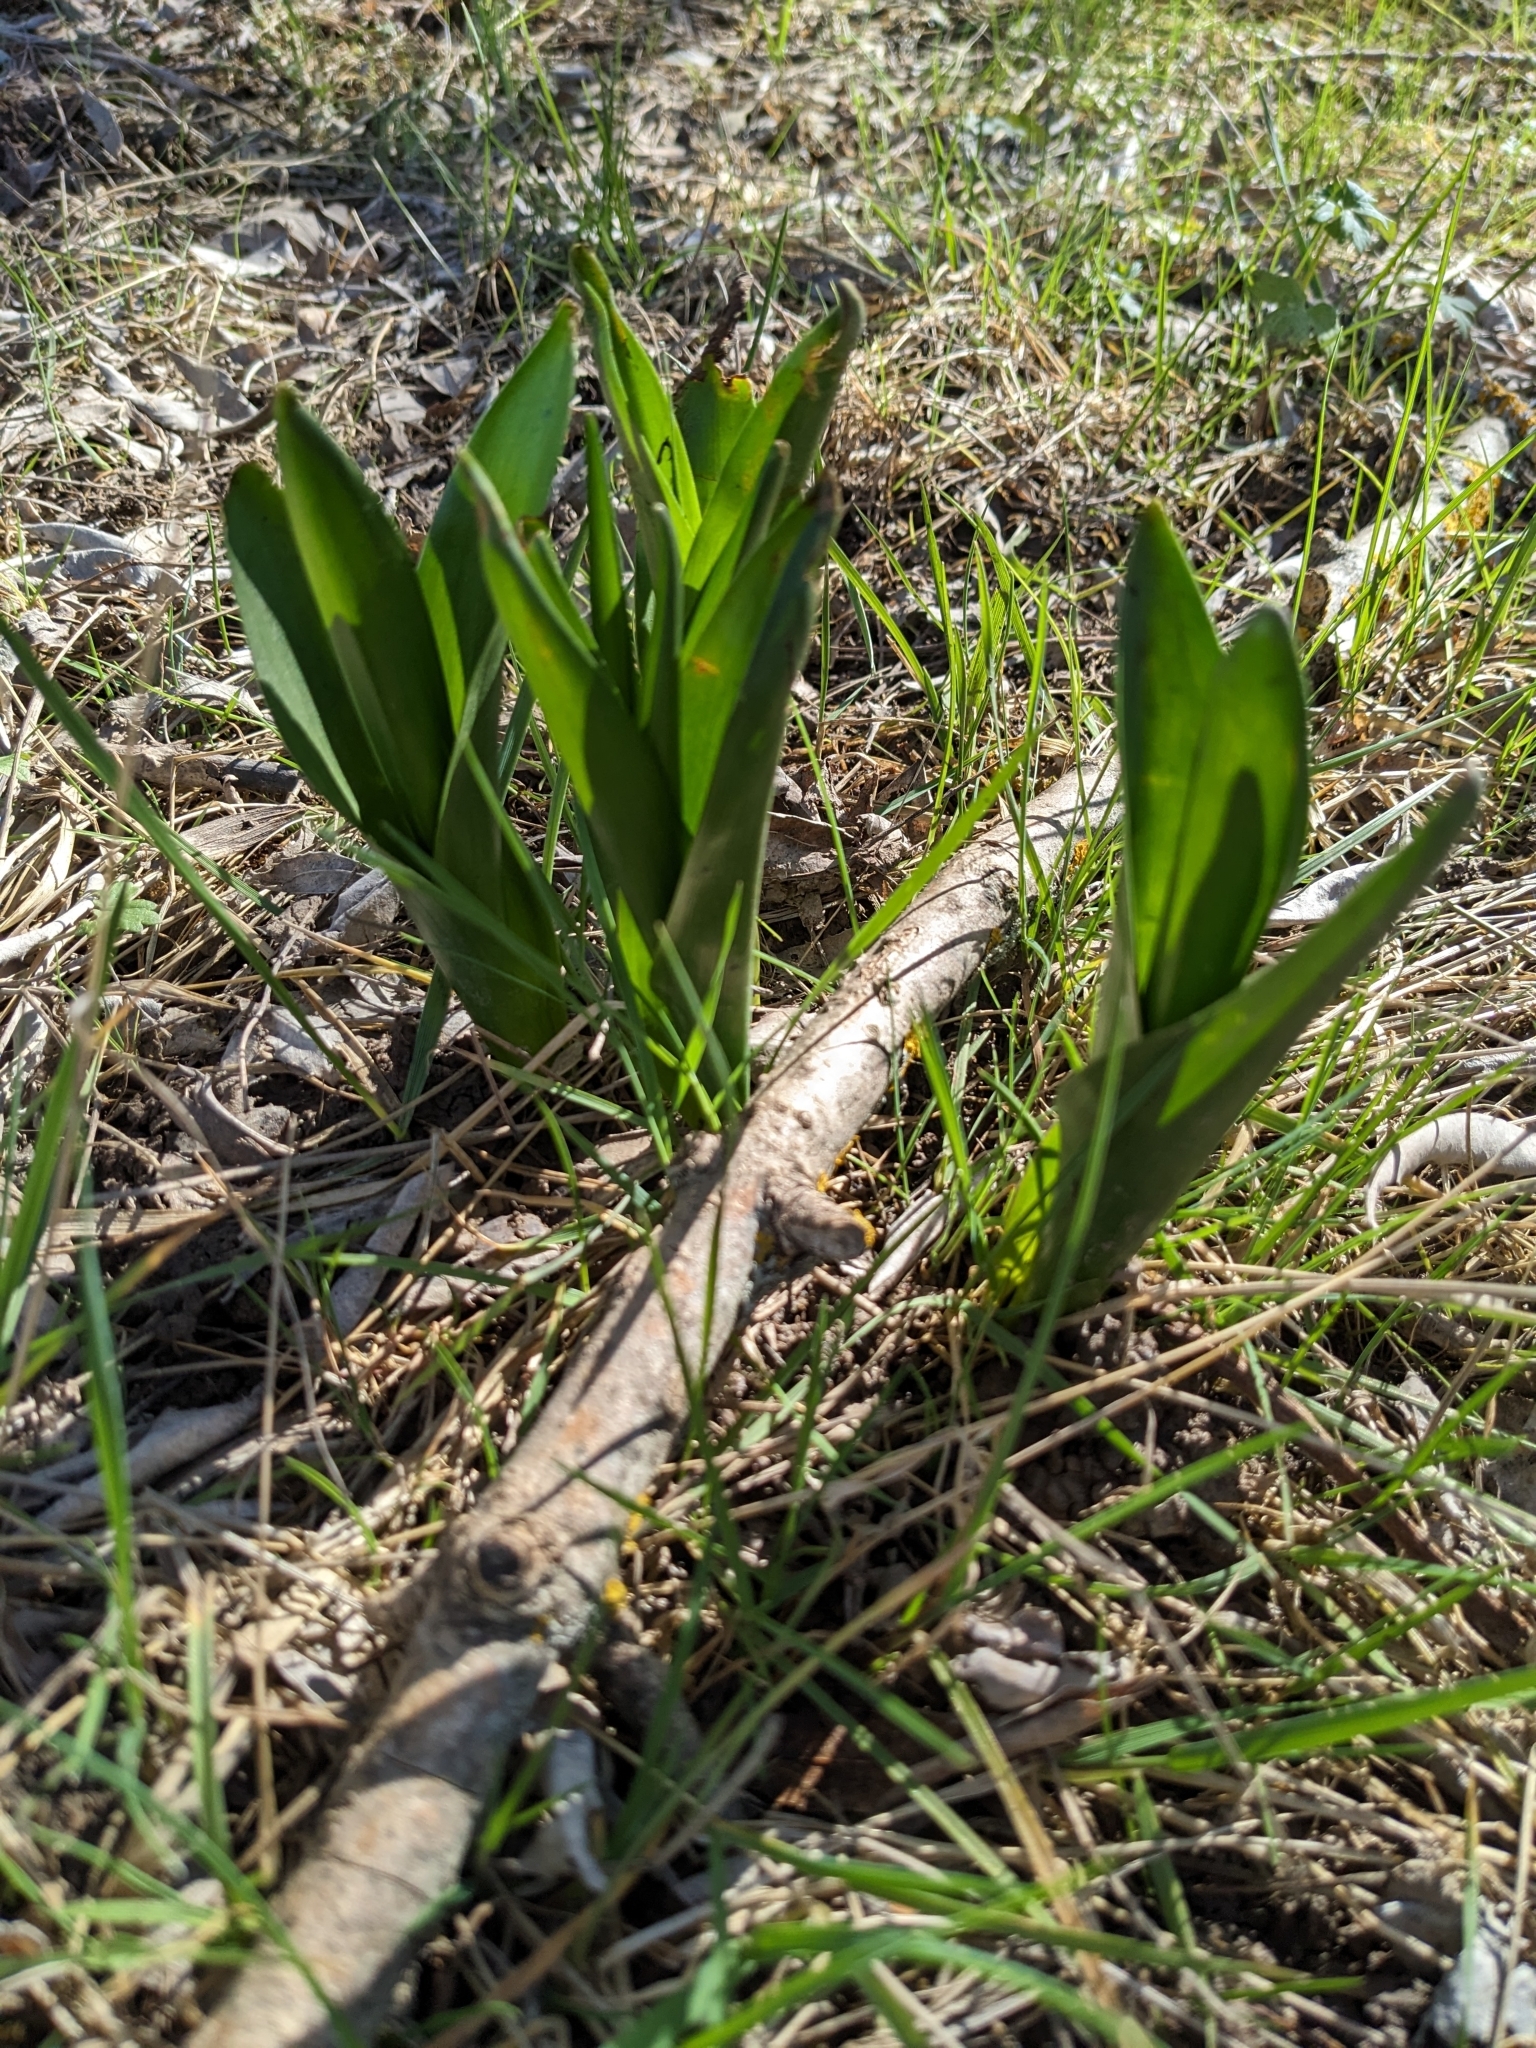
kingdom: Plantae
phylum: Tracheophyta
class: Liliopsida
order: Liliales
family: Colchicaceae
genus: Colchicum
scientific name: Colchicum autumnale
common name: Autumn crocus
